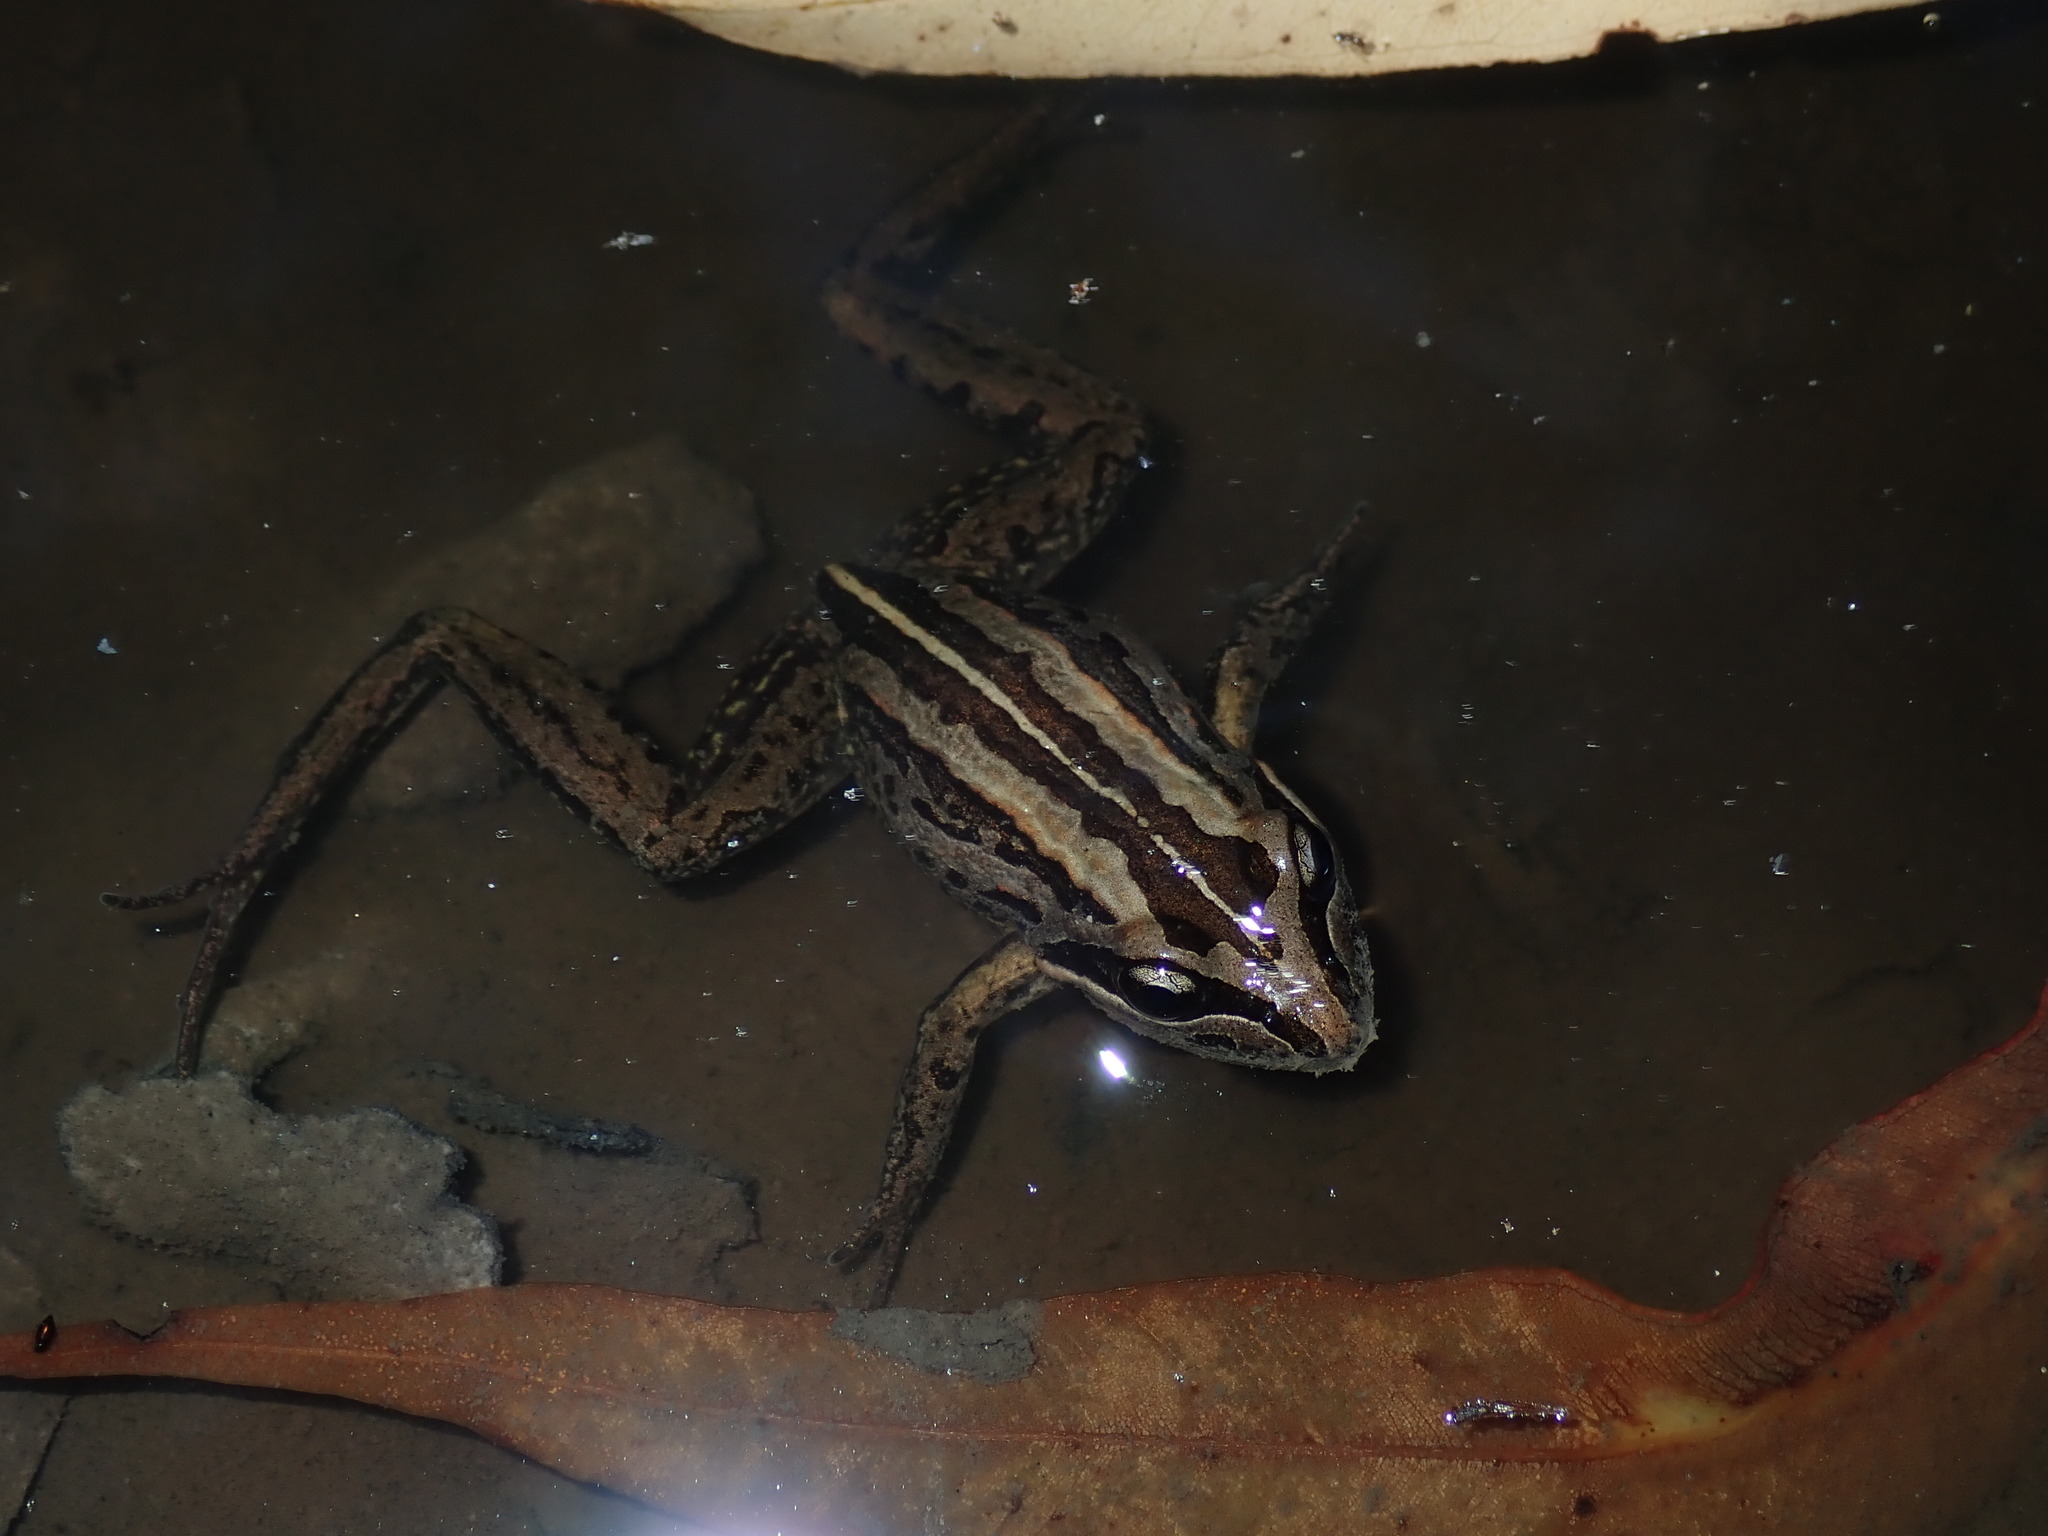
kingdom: Animalia
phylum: Chordata
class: Amphibia
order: Anura
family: Limnodynastidae
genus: Limnodynastes
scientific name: Limnodynastes peronii
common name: Brown frog
